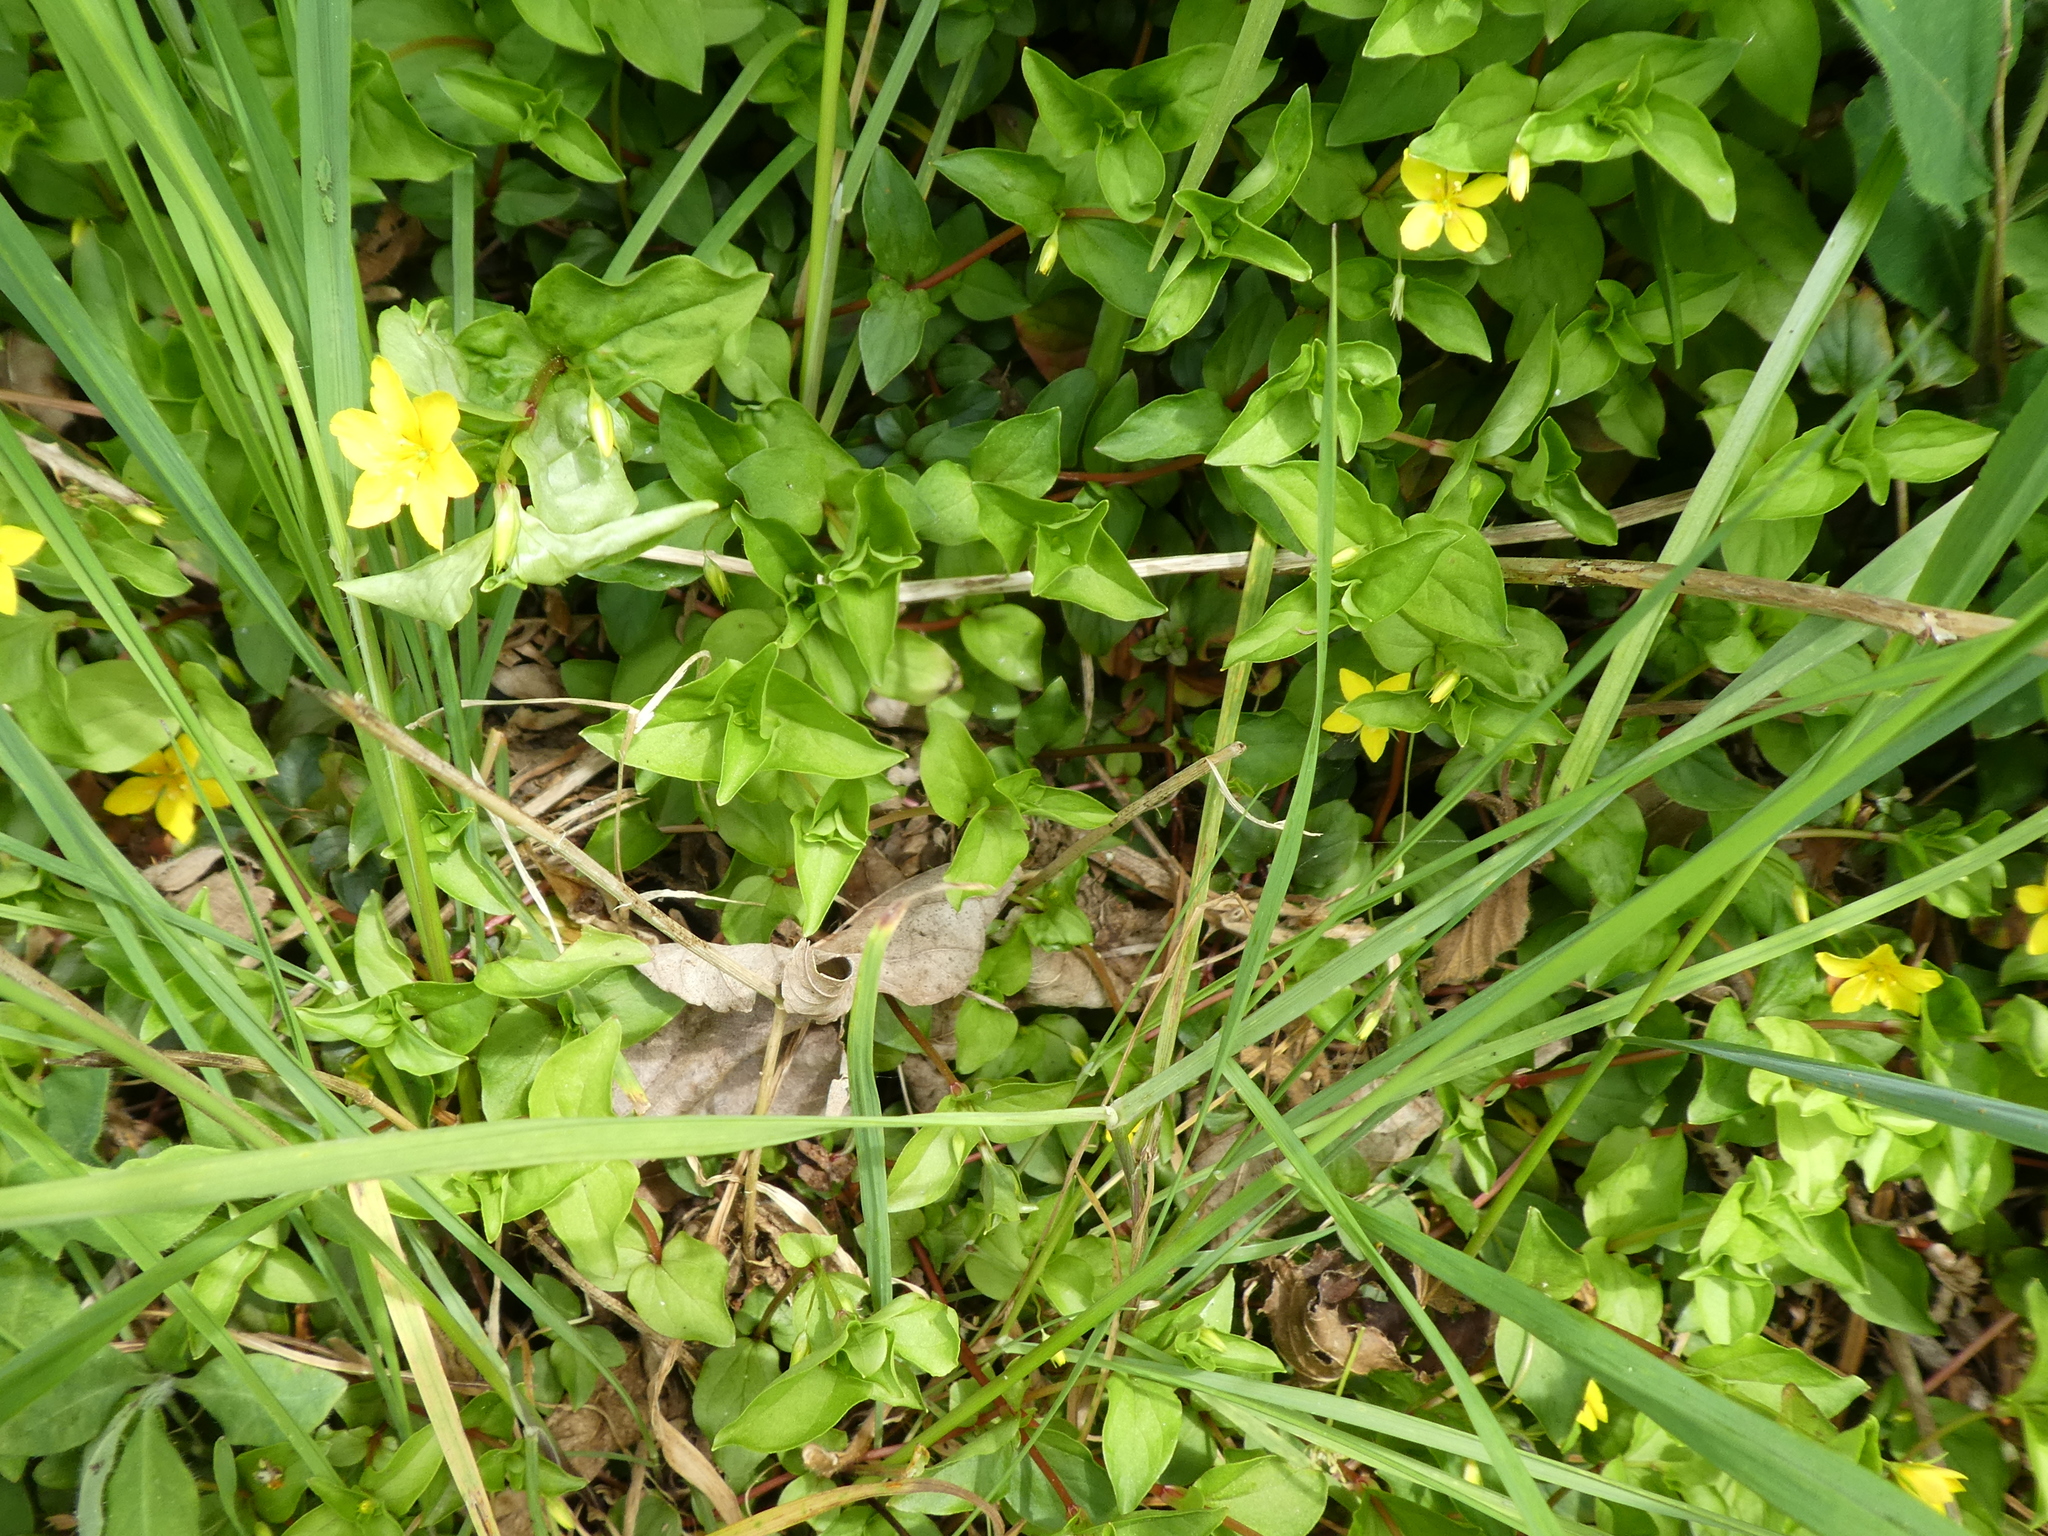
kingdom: Plantae
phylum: Tracheophyta
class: Magnoliopsida
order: Ericales
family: Primulaceae
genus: Lysimachia
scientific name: Lysimachia nemorum
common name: Yellow pimpernel
